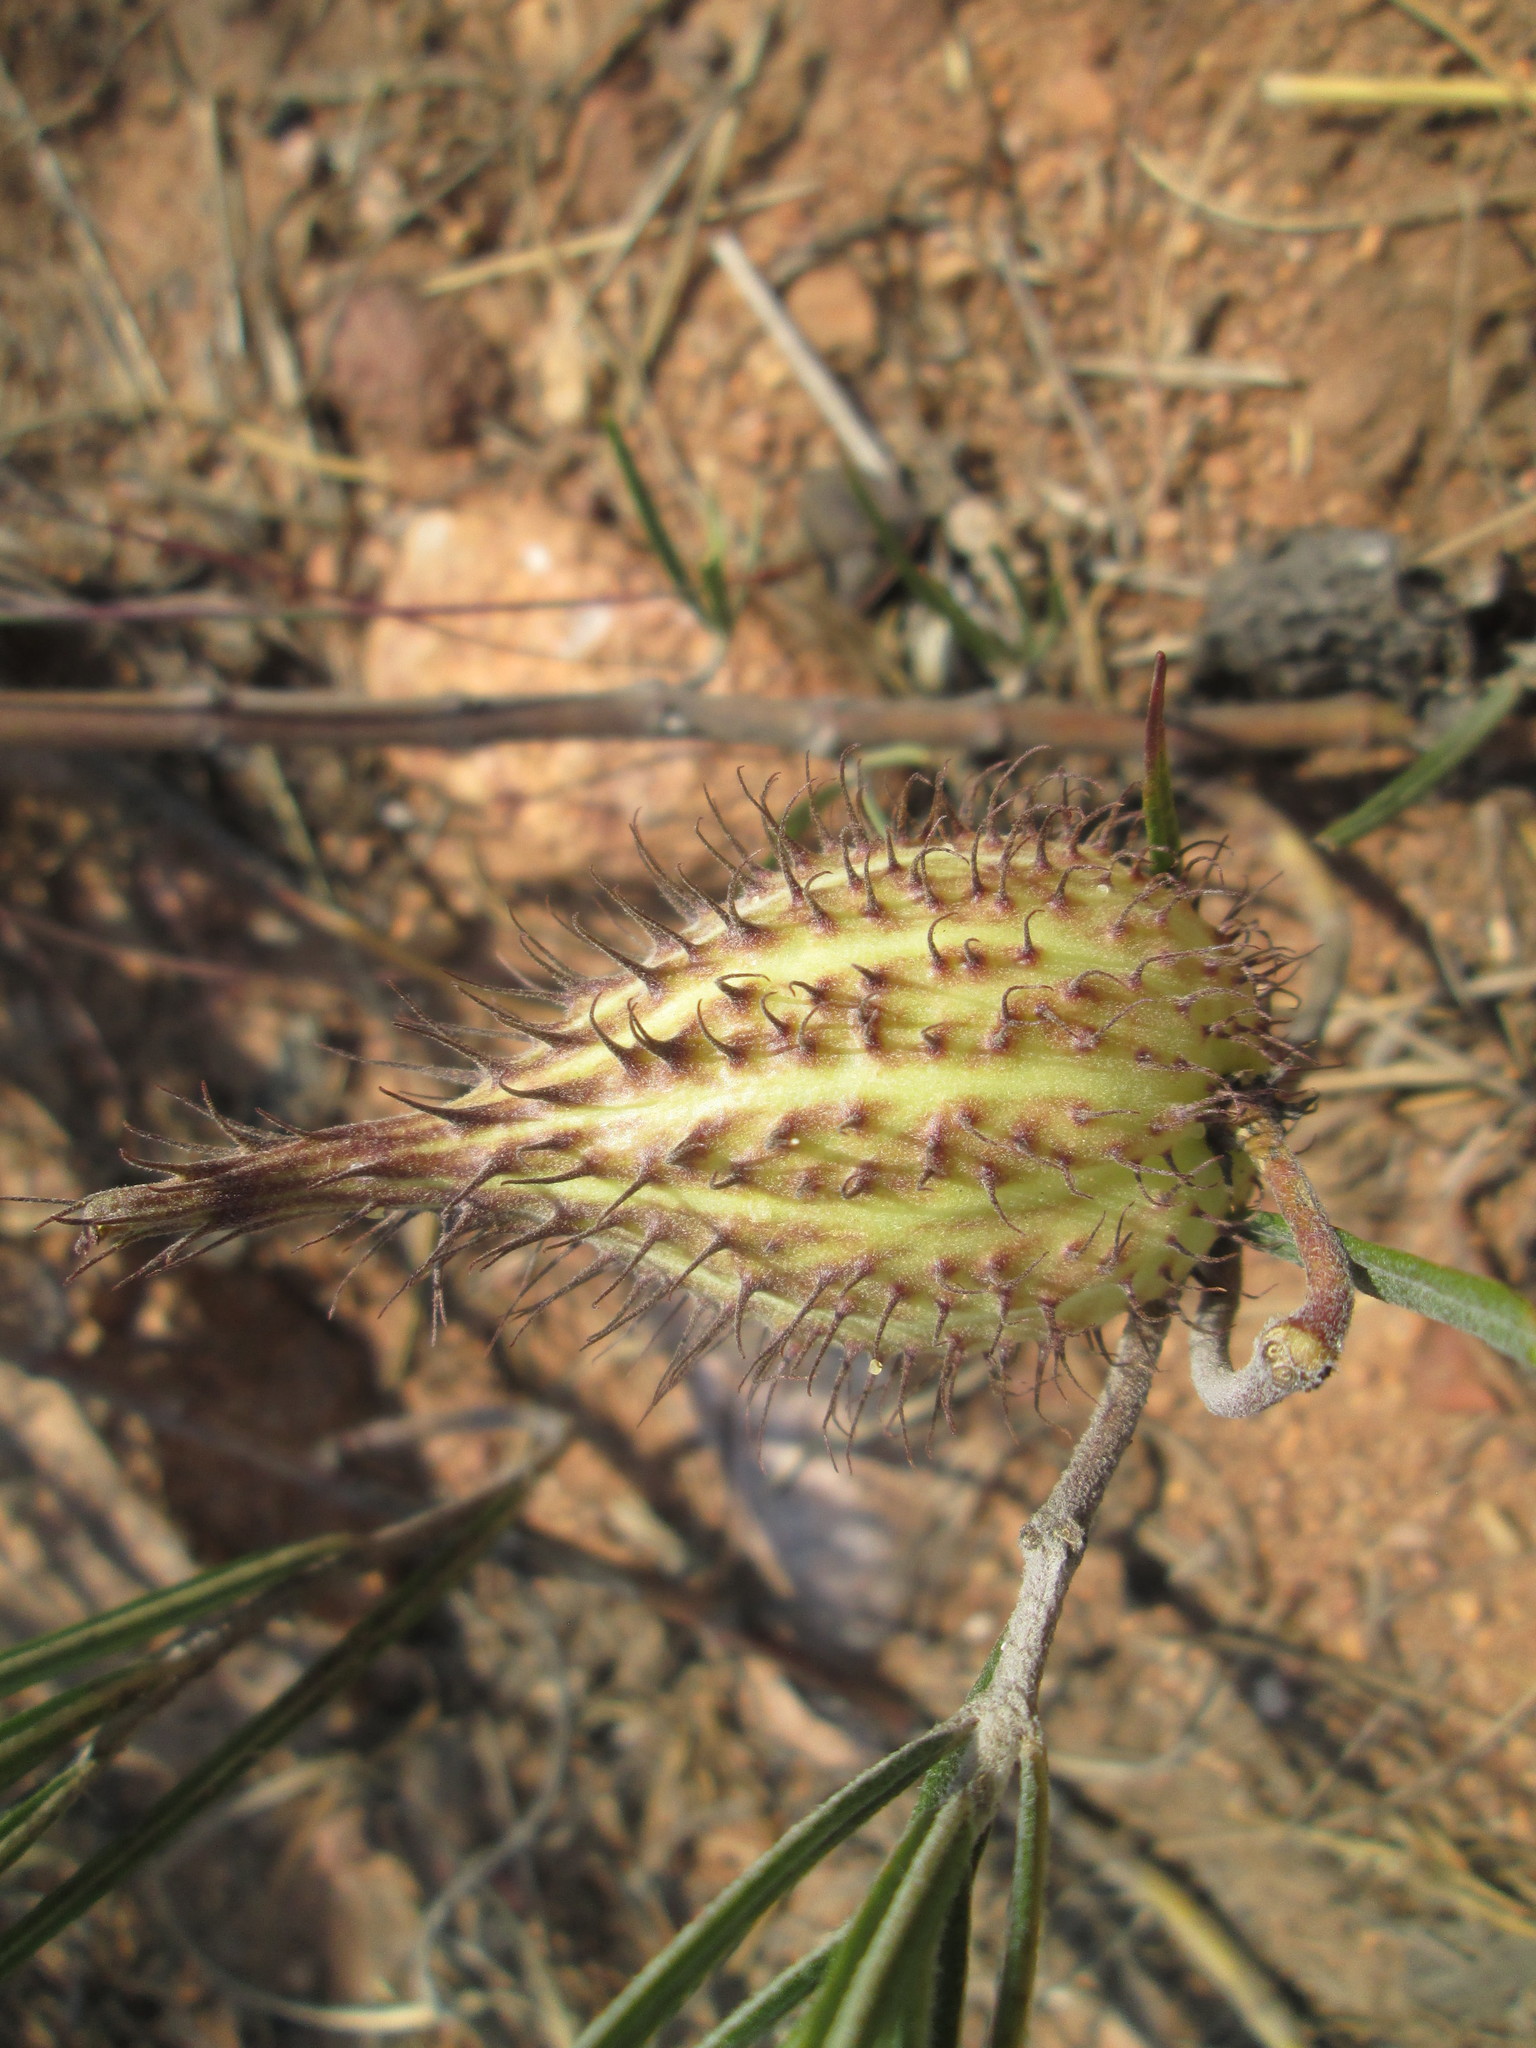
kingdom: Plantae
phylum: Tracheophyta
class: Magnoliopsida
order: Gentianales
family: Apocynaceae
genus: Gomphocarpus
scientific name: Gomphocarpus tomentosus
